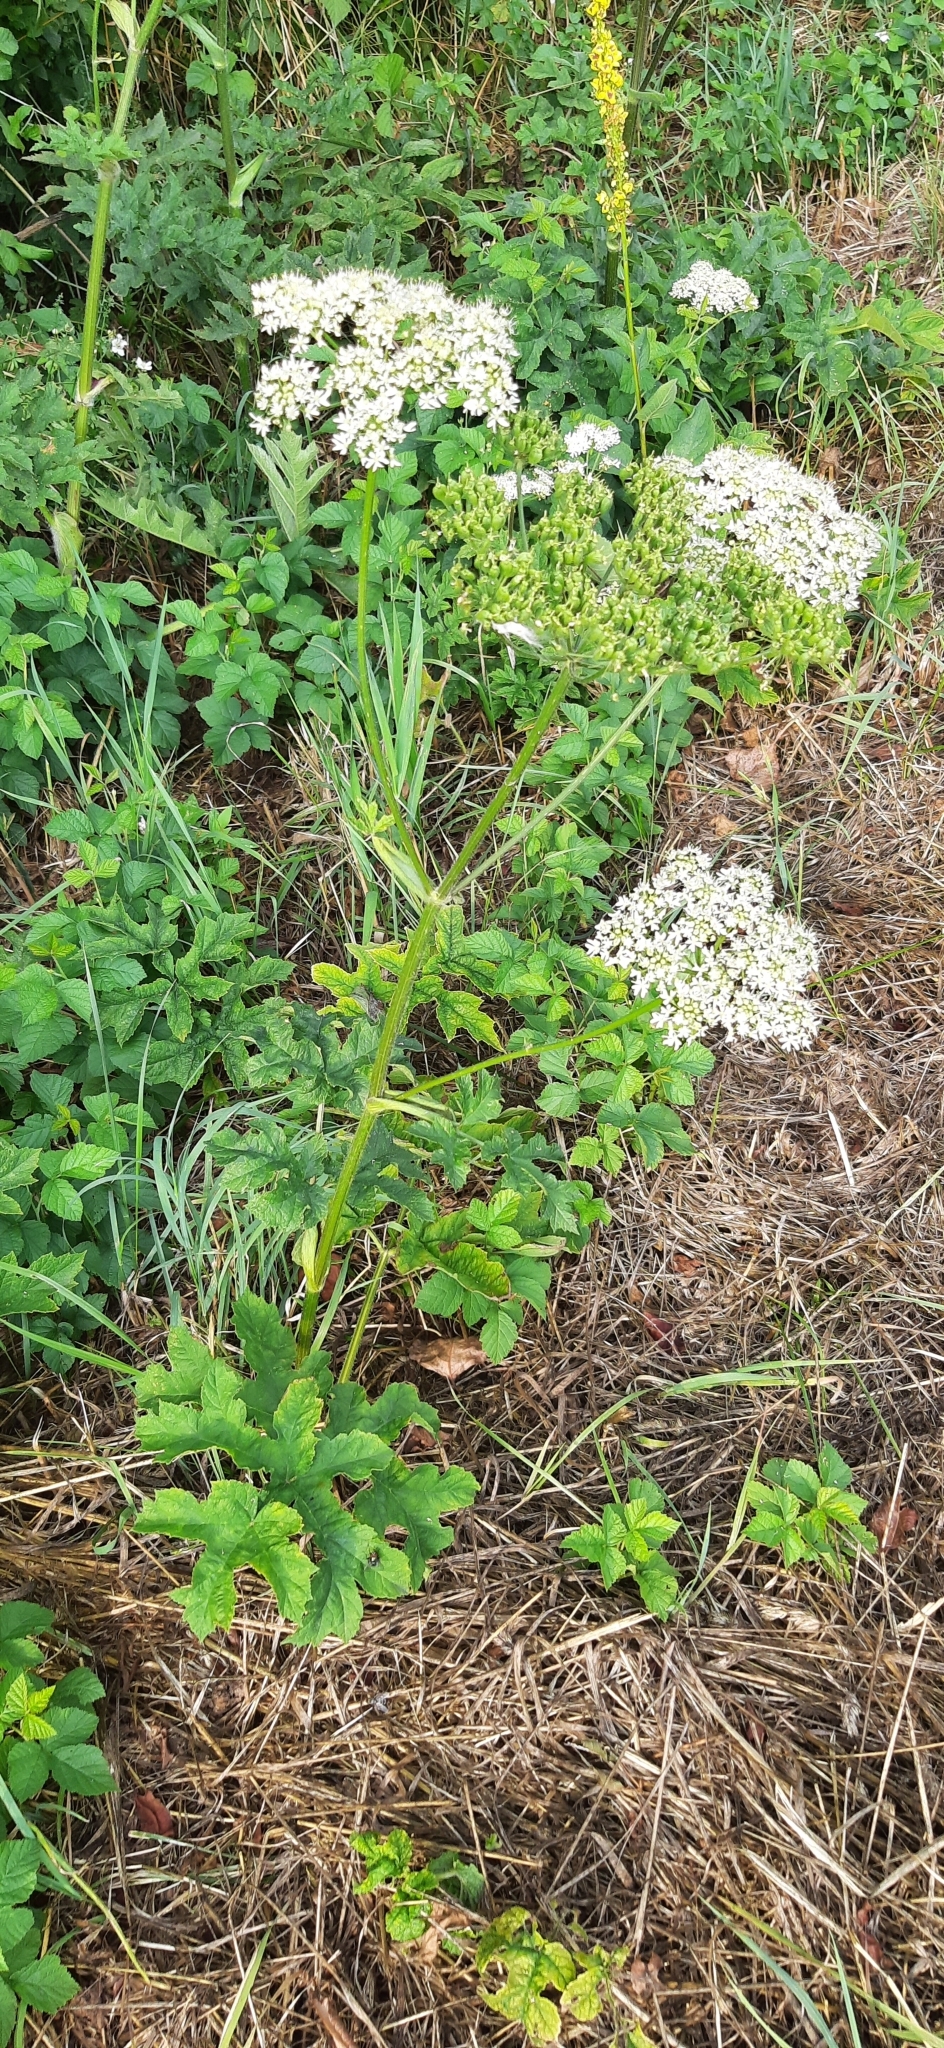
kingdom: Plantae
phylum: Tracheophyta
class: Magnoliopsida
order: Apiales
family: Apiaceae
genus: Heracleum
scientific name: Heracleum sphondylium
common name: Hogweed
